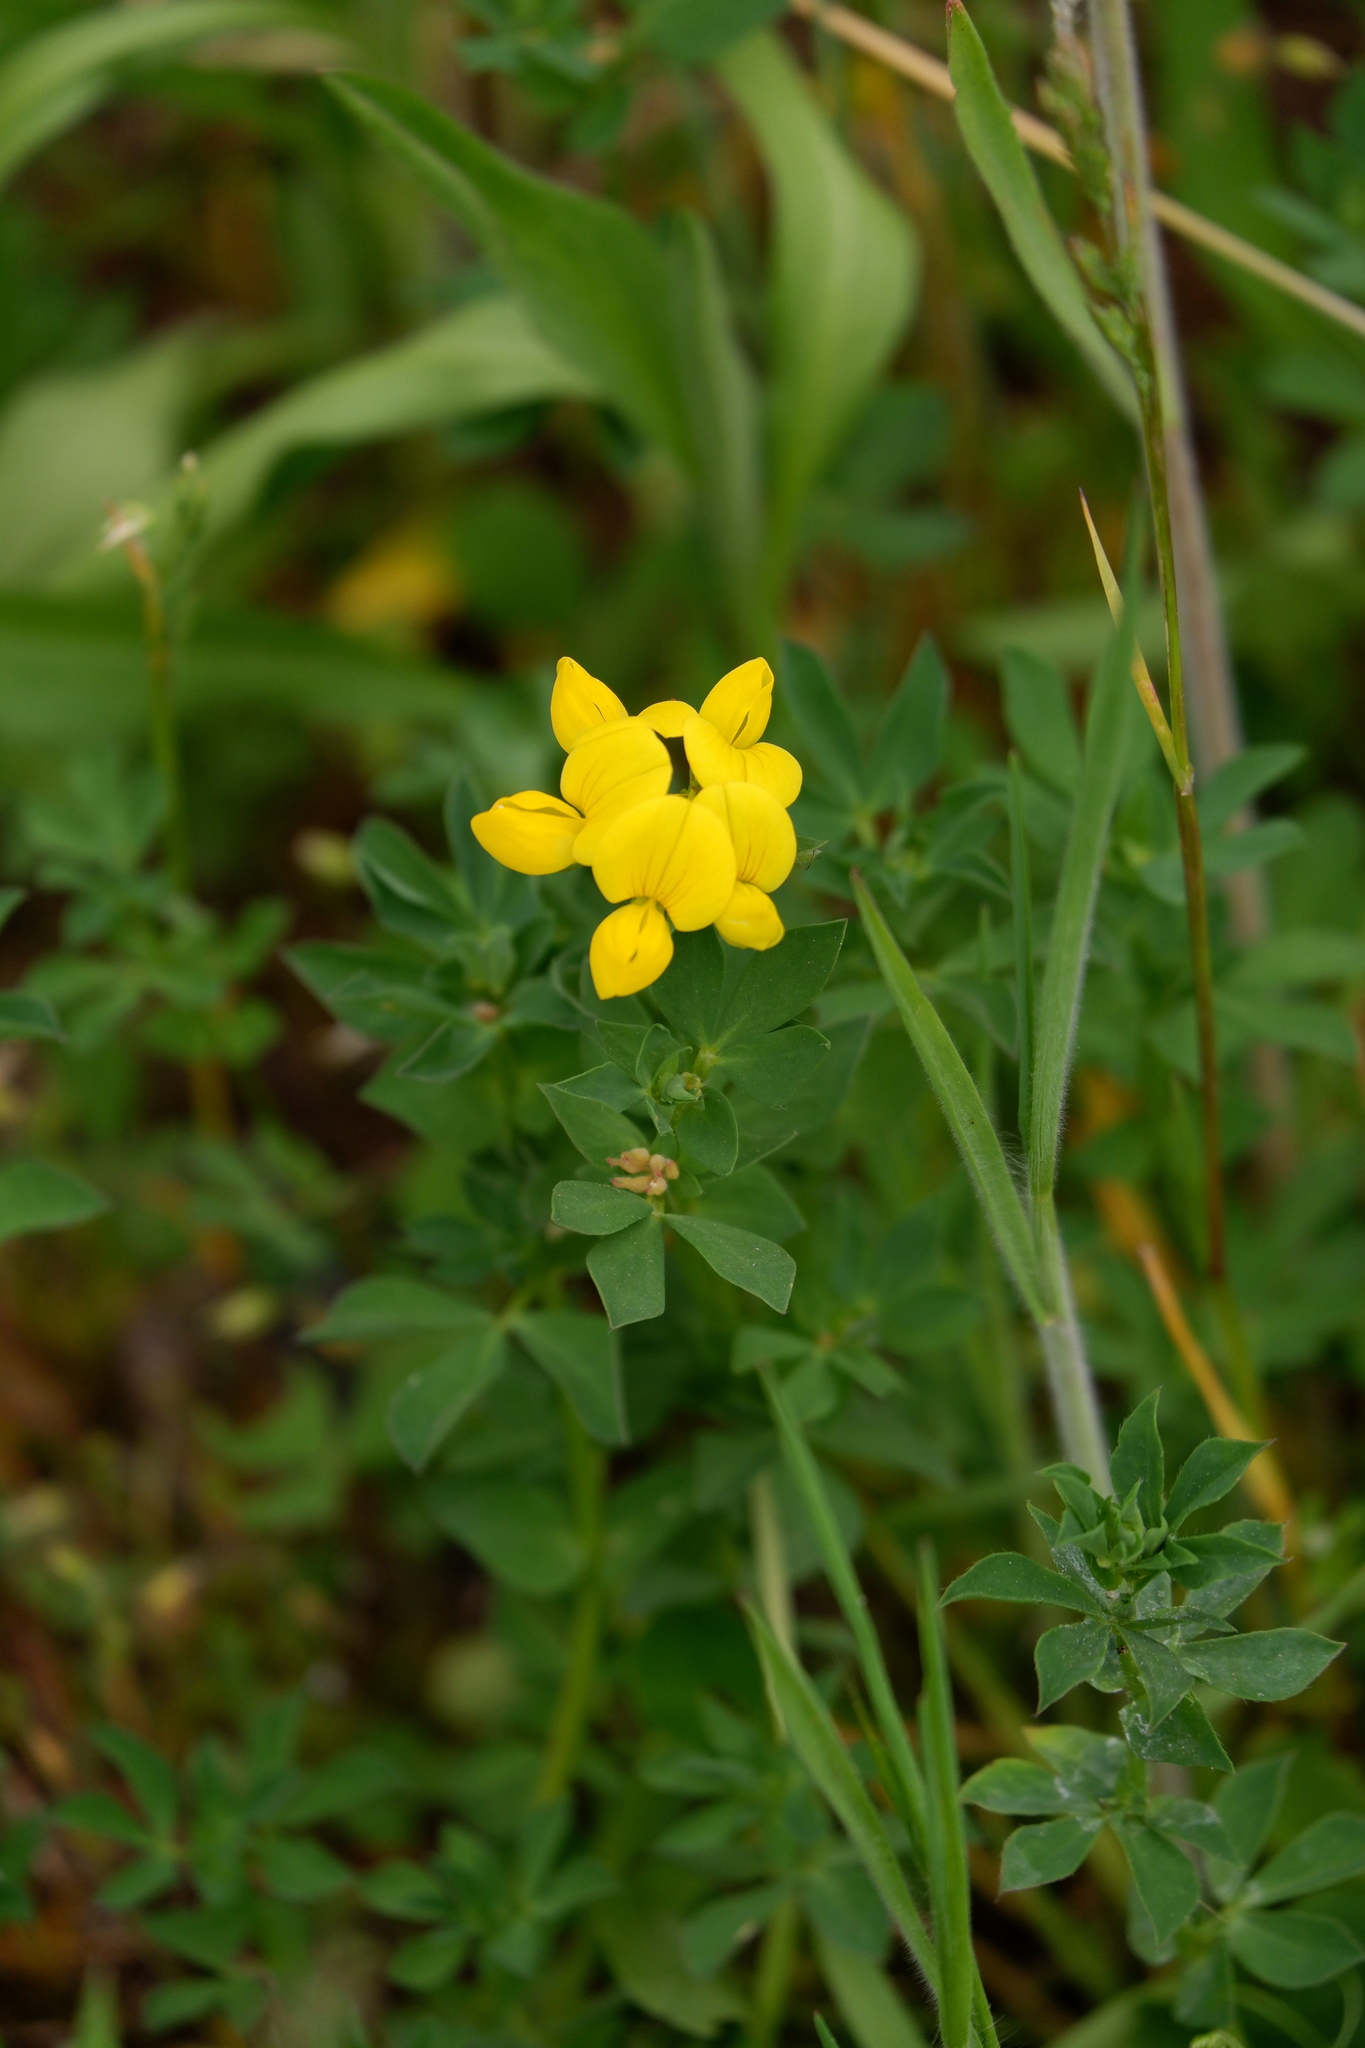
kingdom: Plantae
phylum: Tracheophyta
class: Magnoliopsida
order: Fabales
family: Fabaceae
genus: Lotus
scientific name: Lotus corniculatus
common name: Common bird's-foot-trefoil
